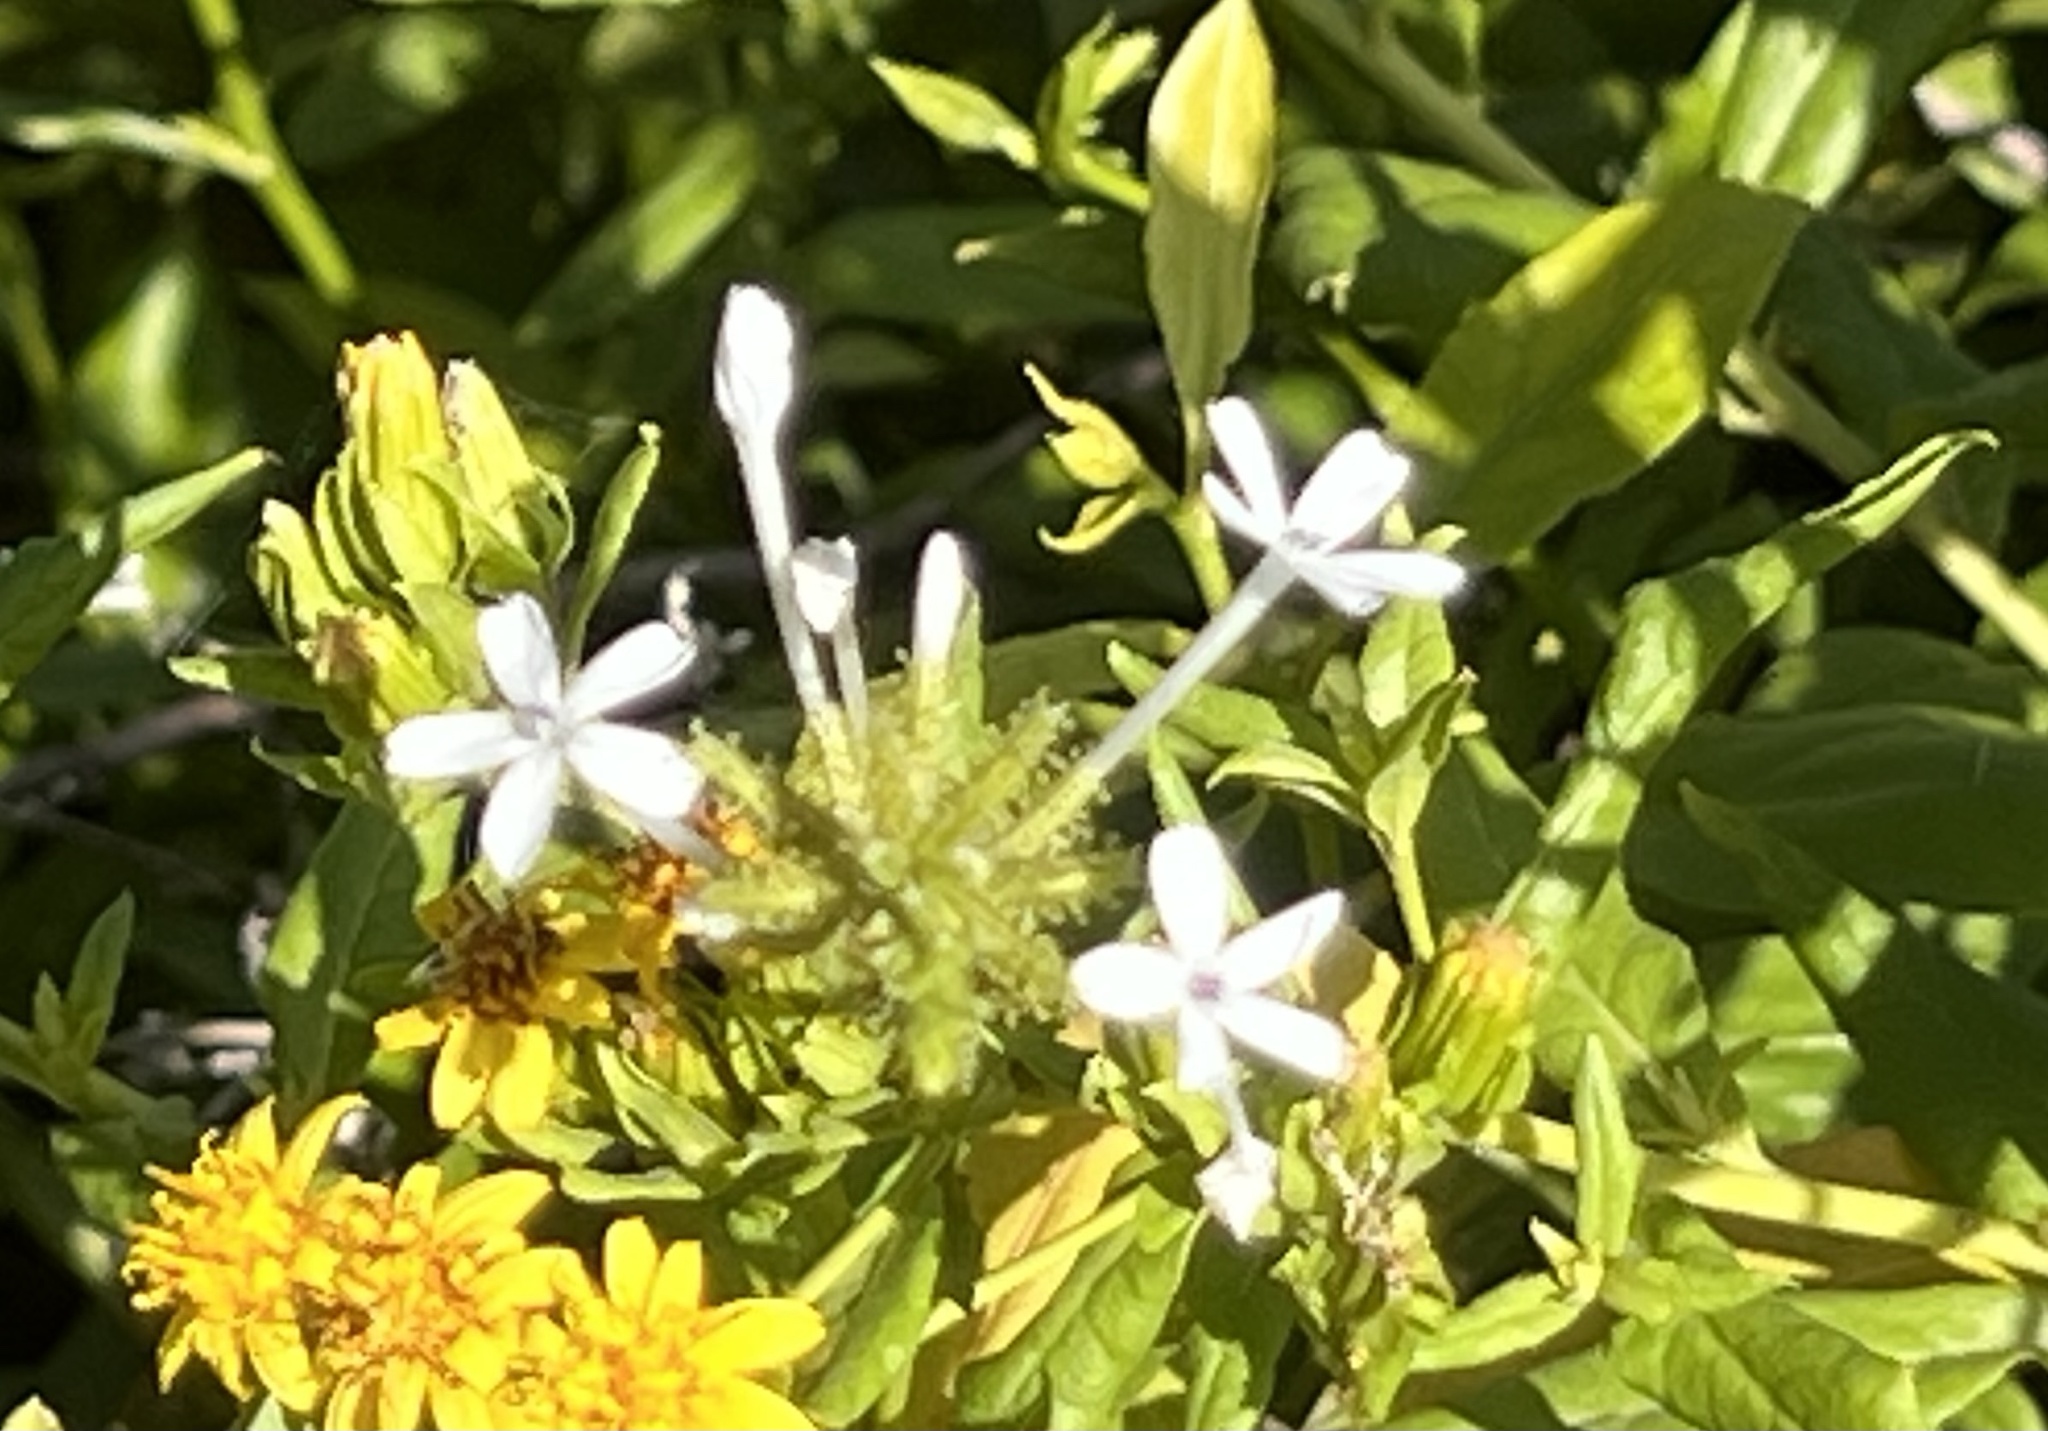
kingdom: Plantae
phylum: Tracheophyta
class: Magnoliopsida
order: Caryophyllales
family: Plumbaginaceae
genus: Plumbago
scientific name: Plumbago zeylanica
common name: Doctorbush
